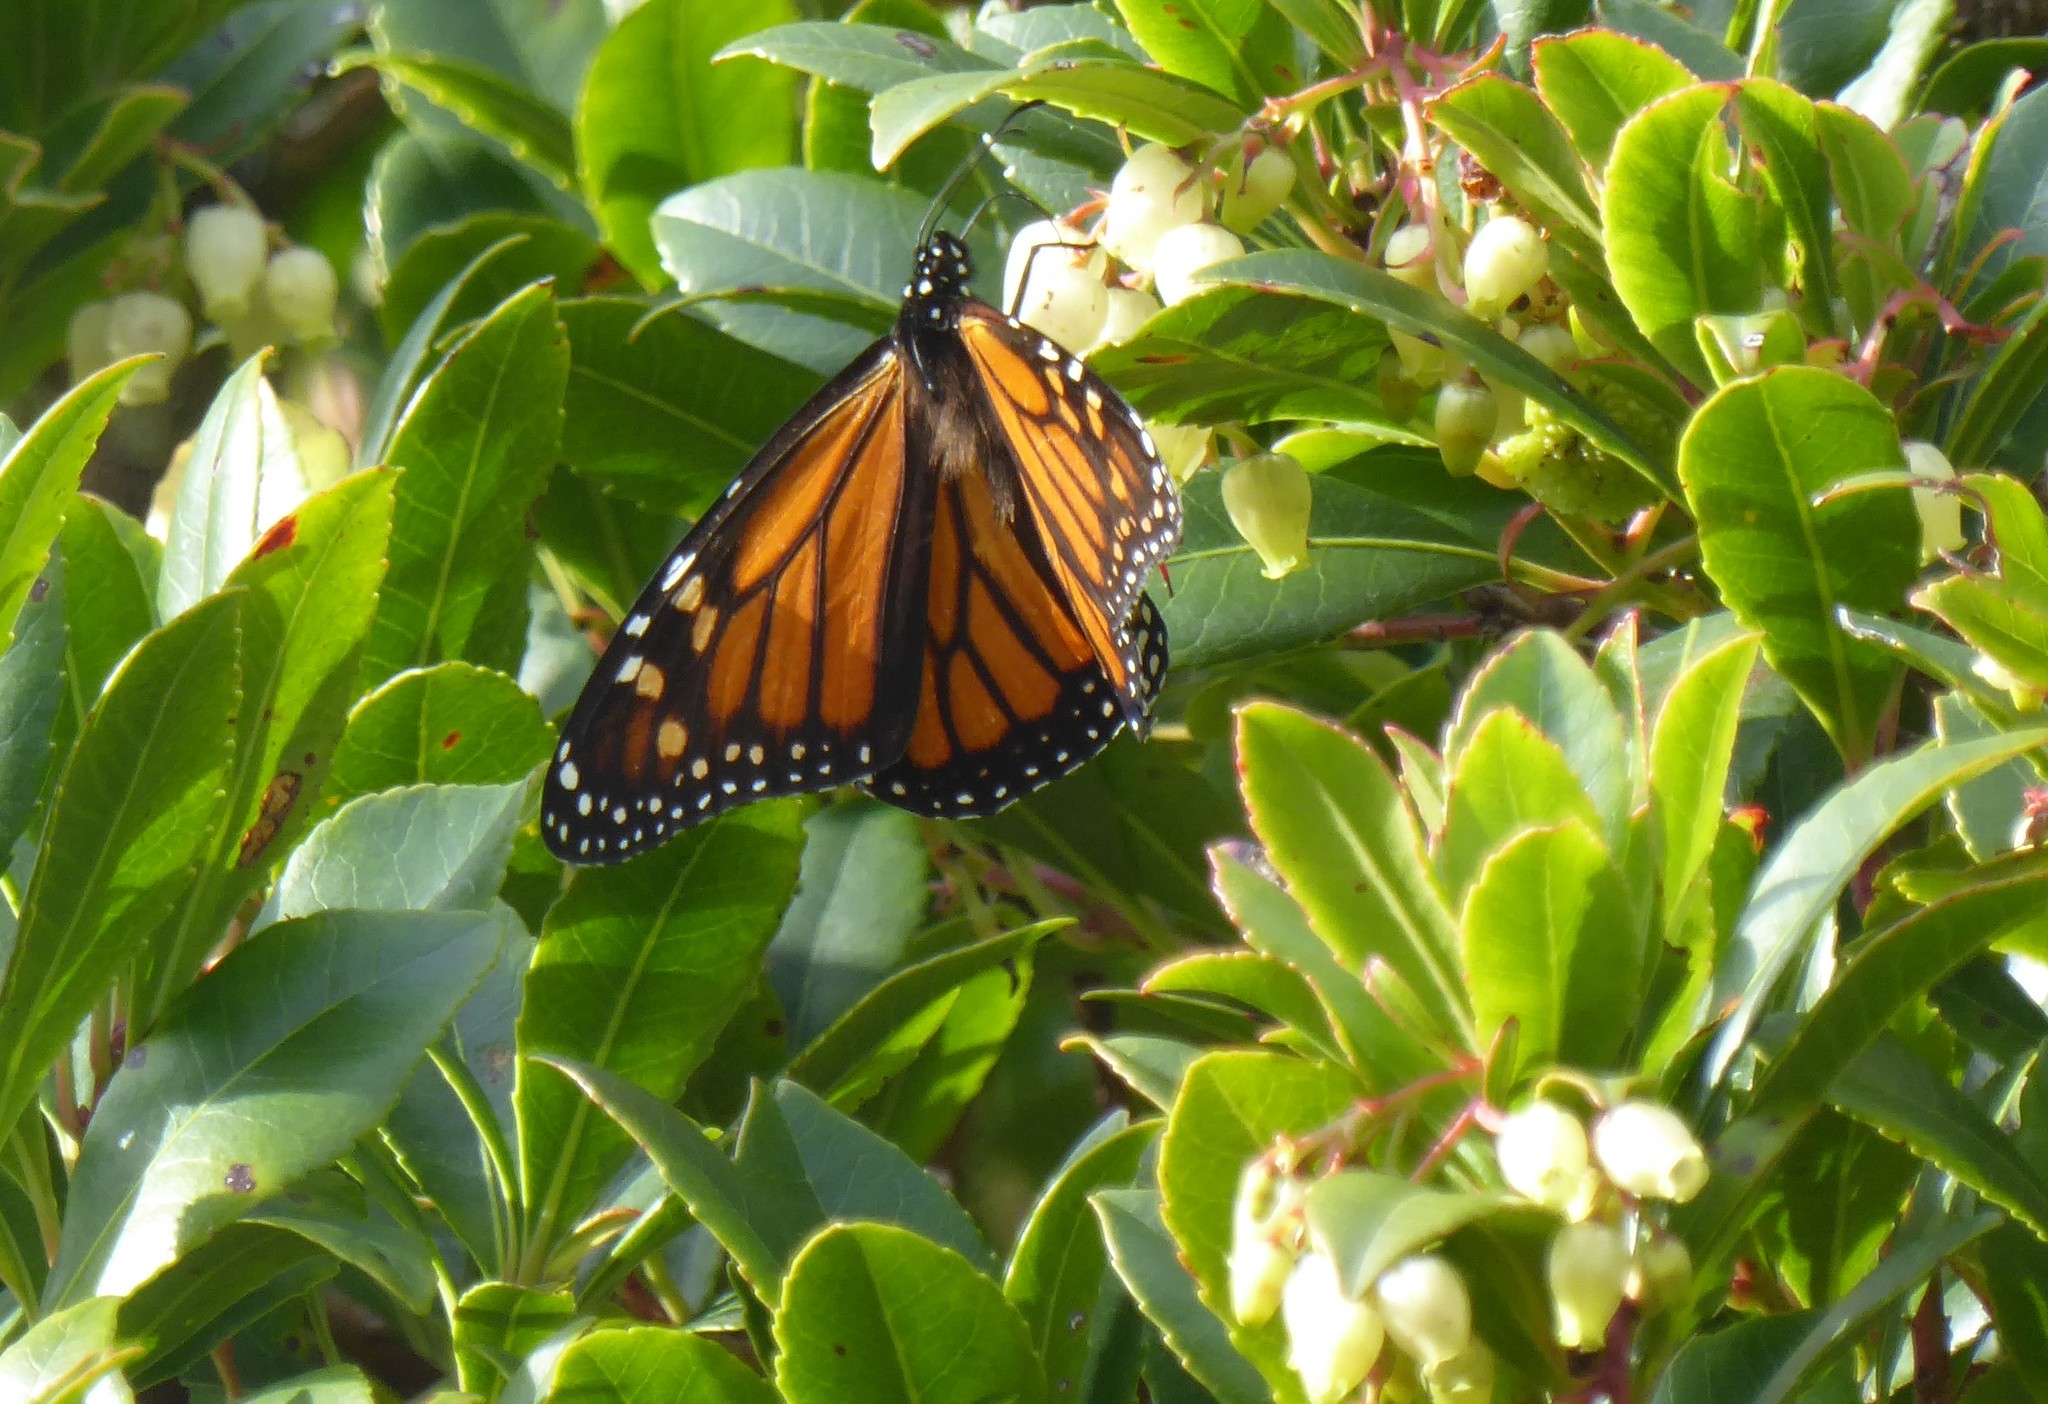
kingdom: Animalia
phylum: Arthropoda
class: Insecta
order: Lepidoptera
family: Nymphalidae
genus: Danaus
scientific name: Danaus plexippus
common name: Monarch
